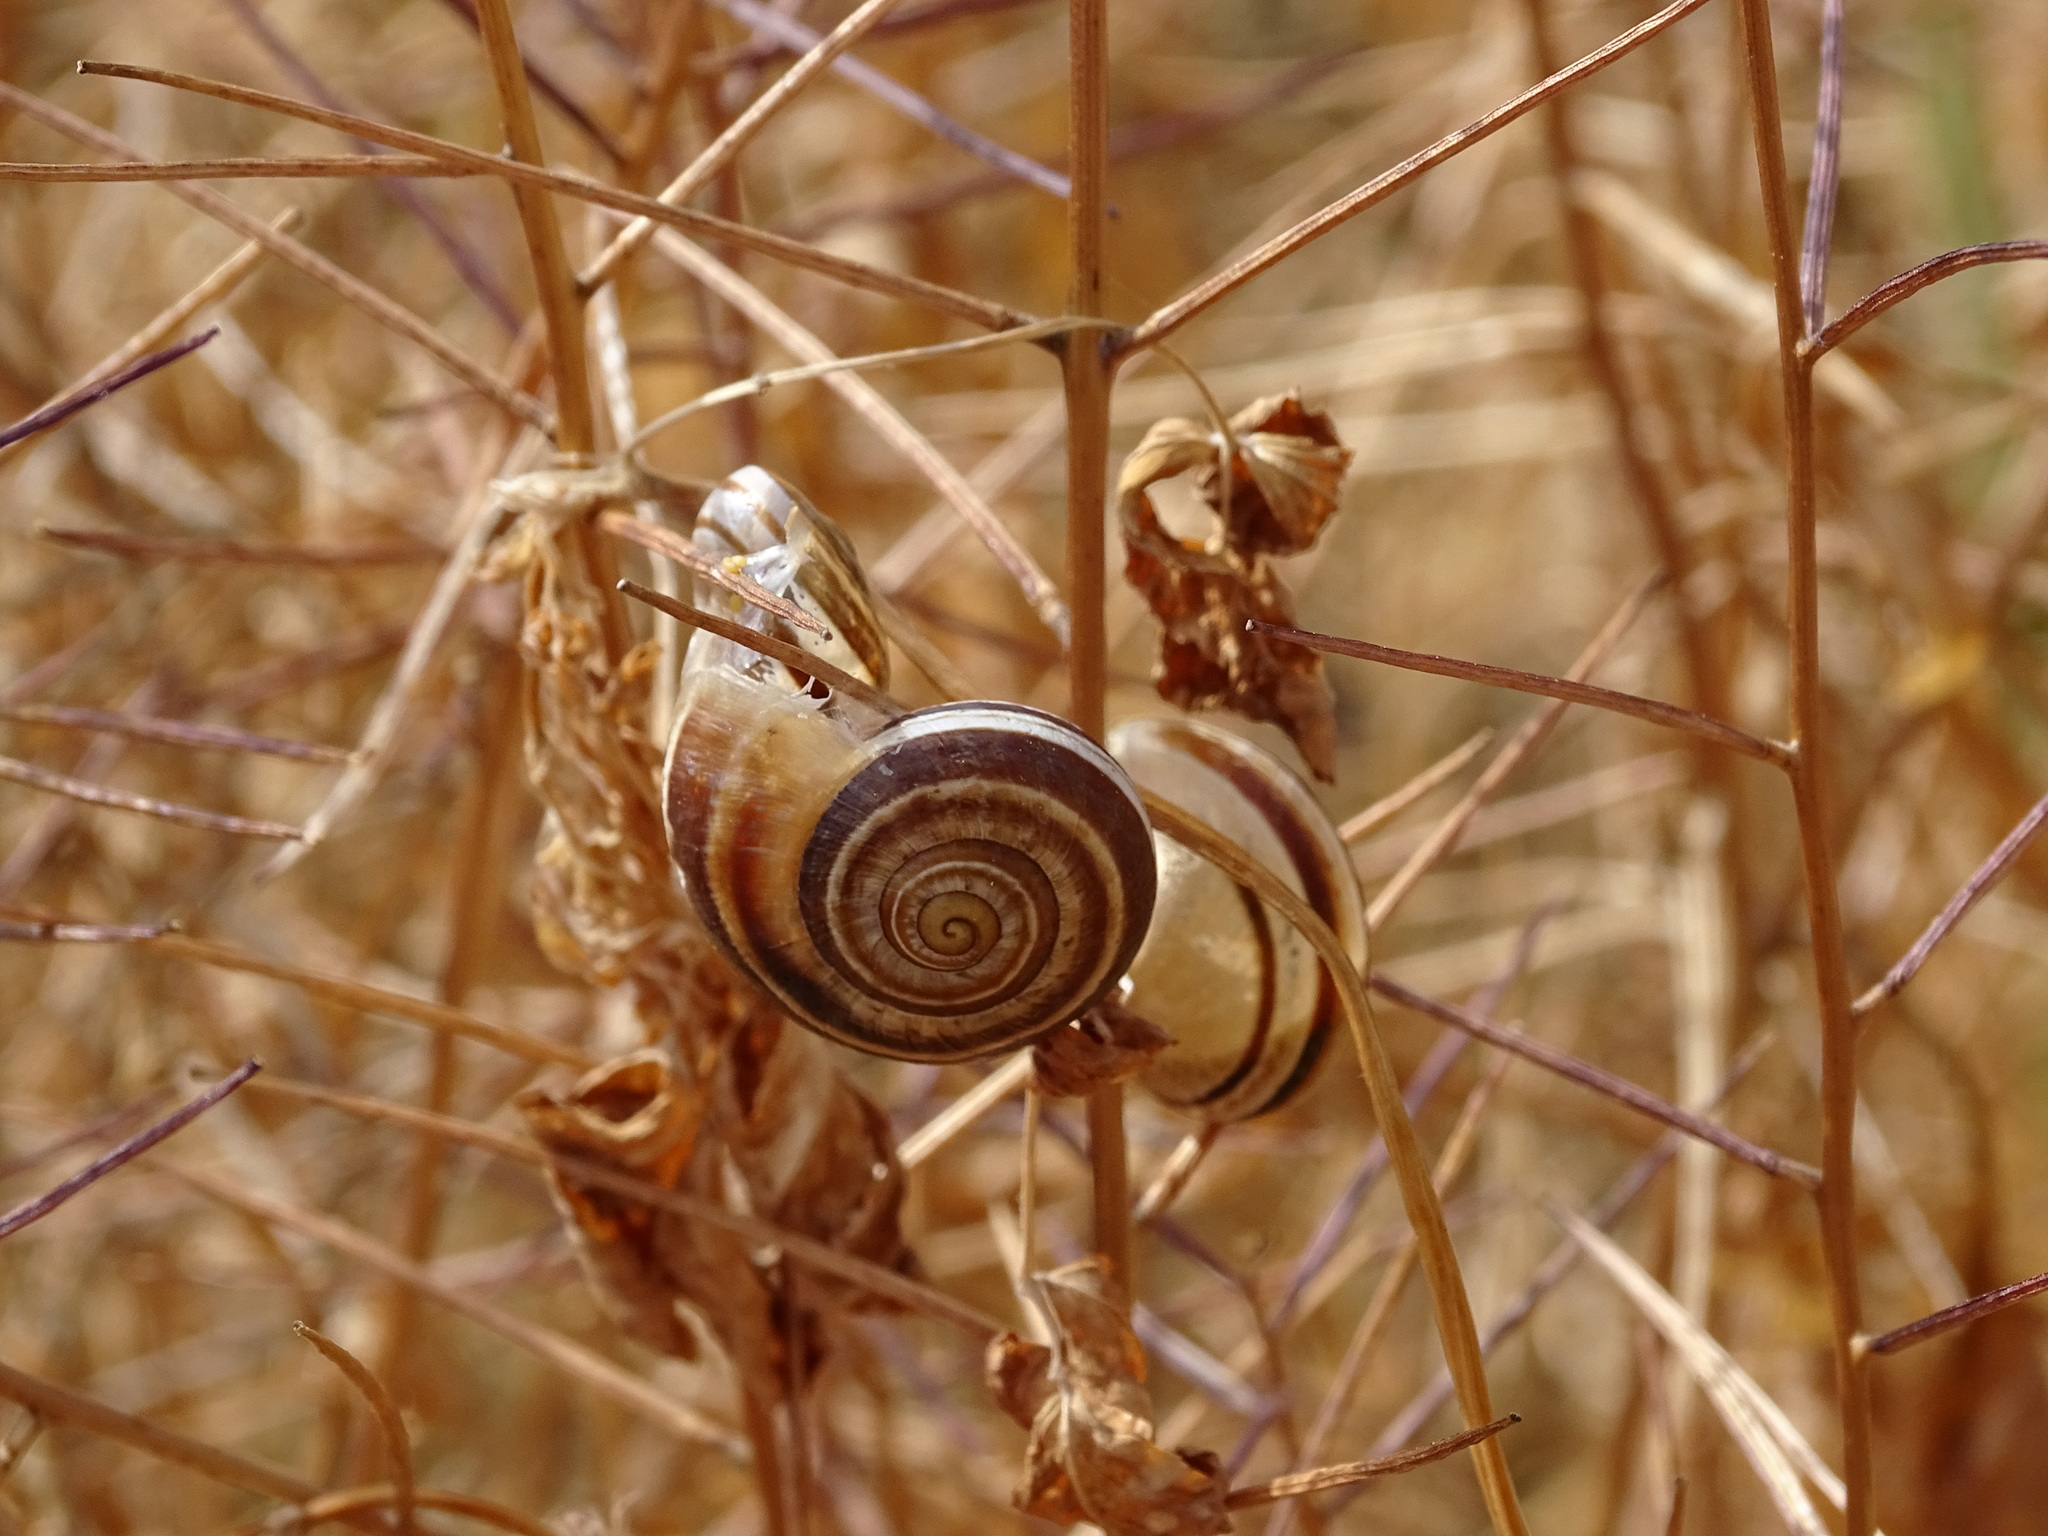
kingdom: Animalia
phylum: Mollusca
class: Gastropoda
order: Stylommatophora
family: Helicidae
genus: Otala
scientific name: Otala lactea
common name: Milk snail
